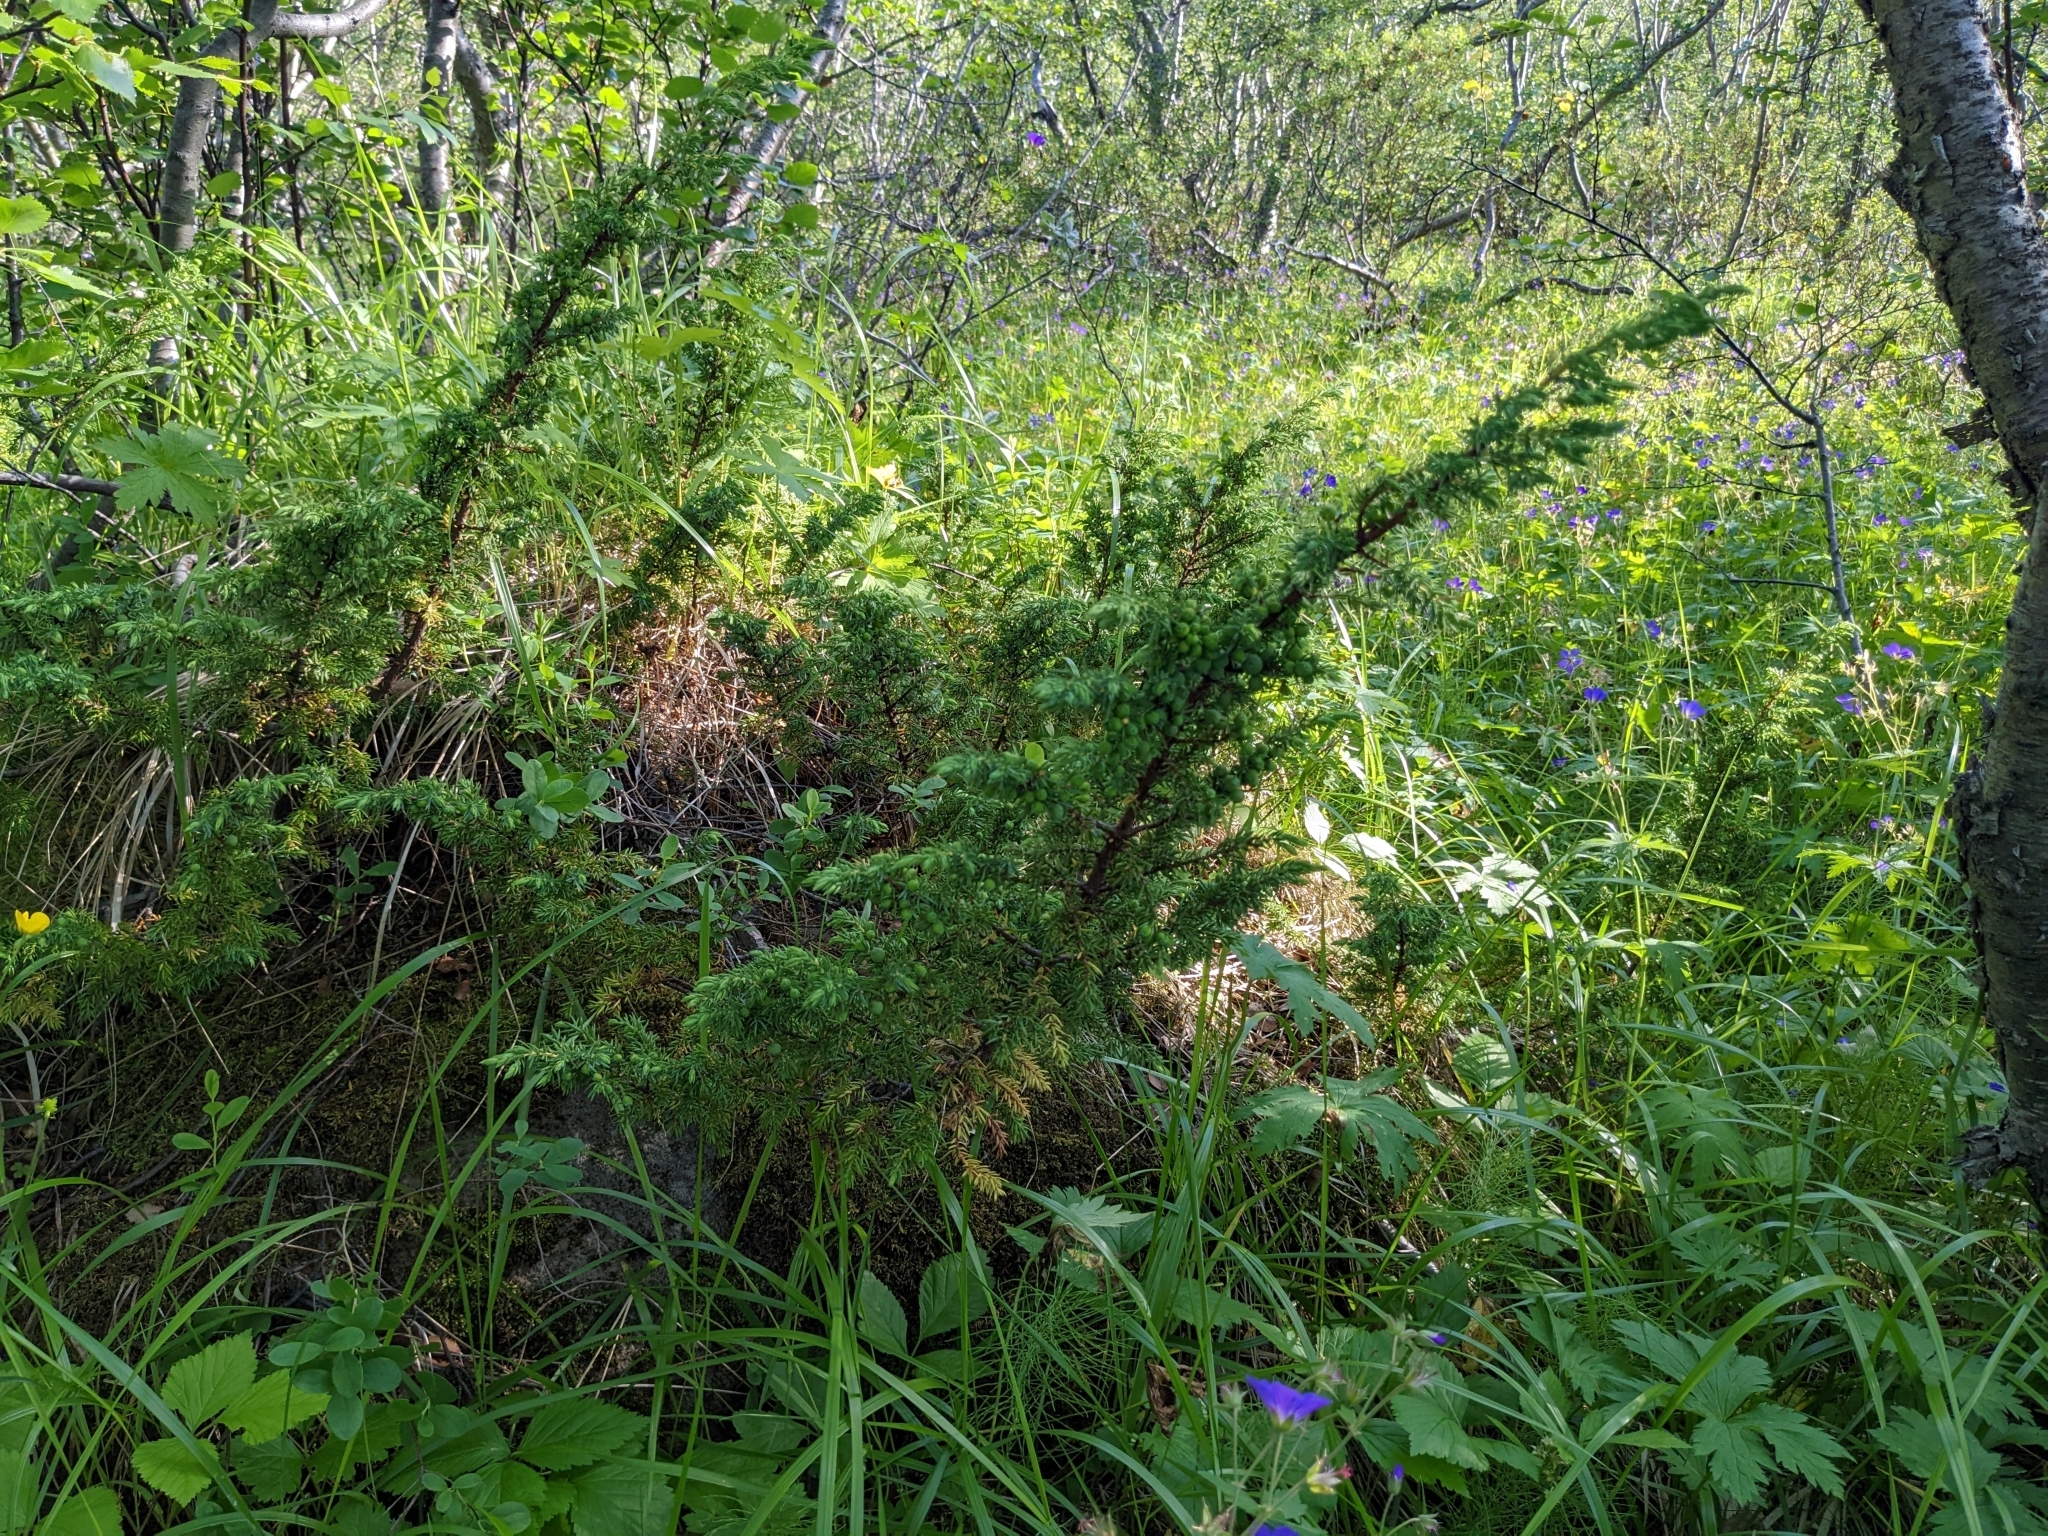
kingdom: Plantae
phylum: Tracheophyta
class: Pinopsida
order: Pinales
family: Cupressaceae
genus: Juniperus
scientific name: Juniperus communis
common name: Common juniper
